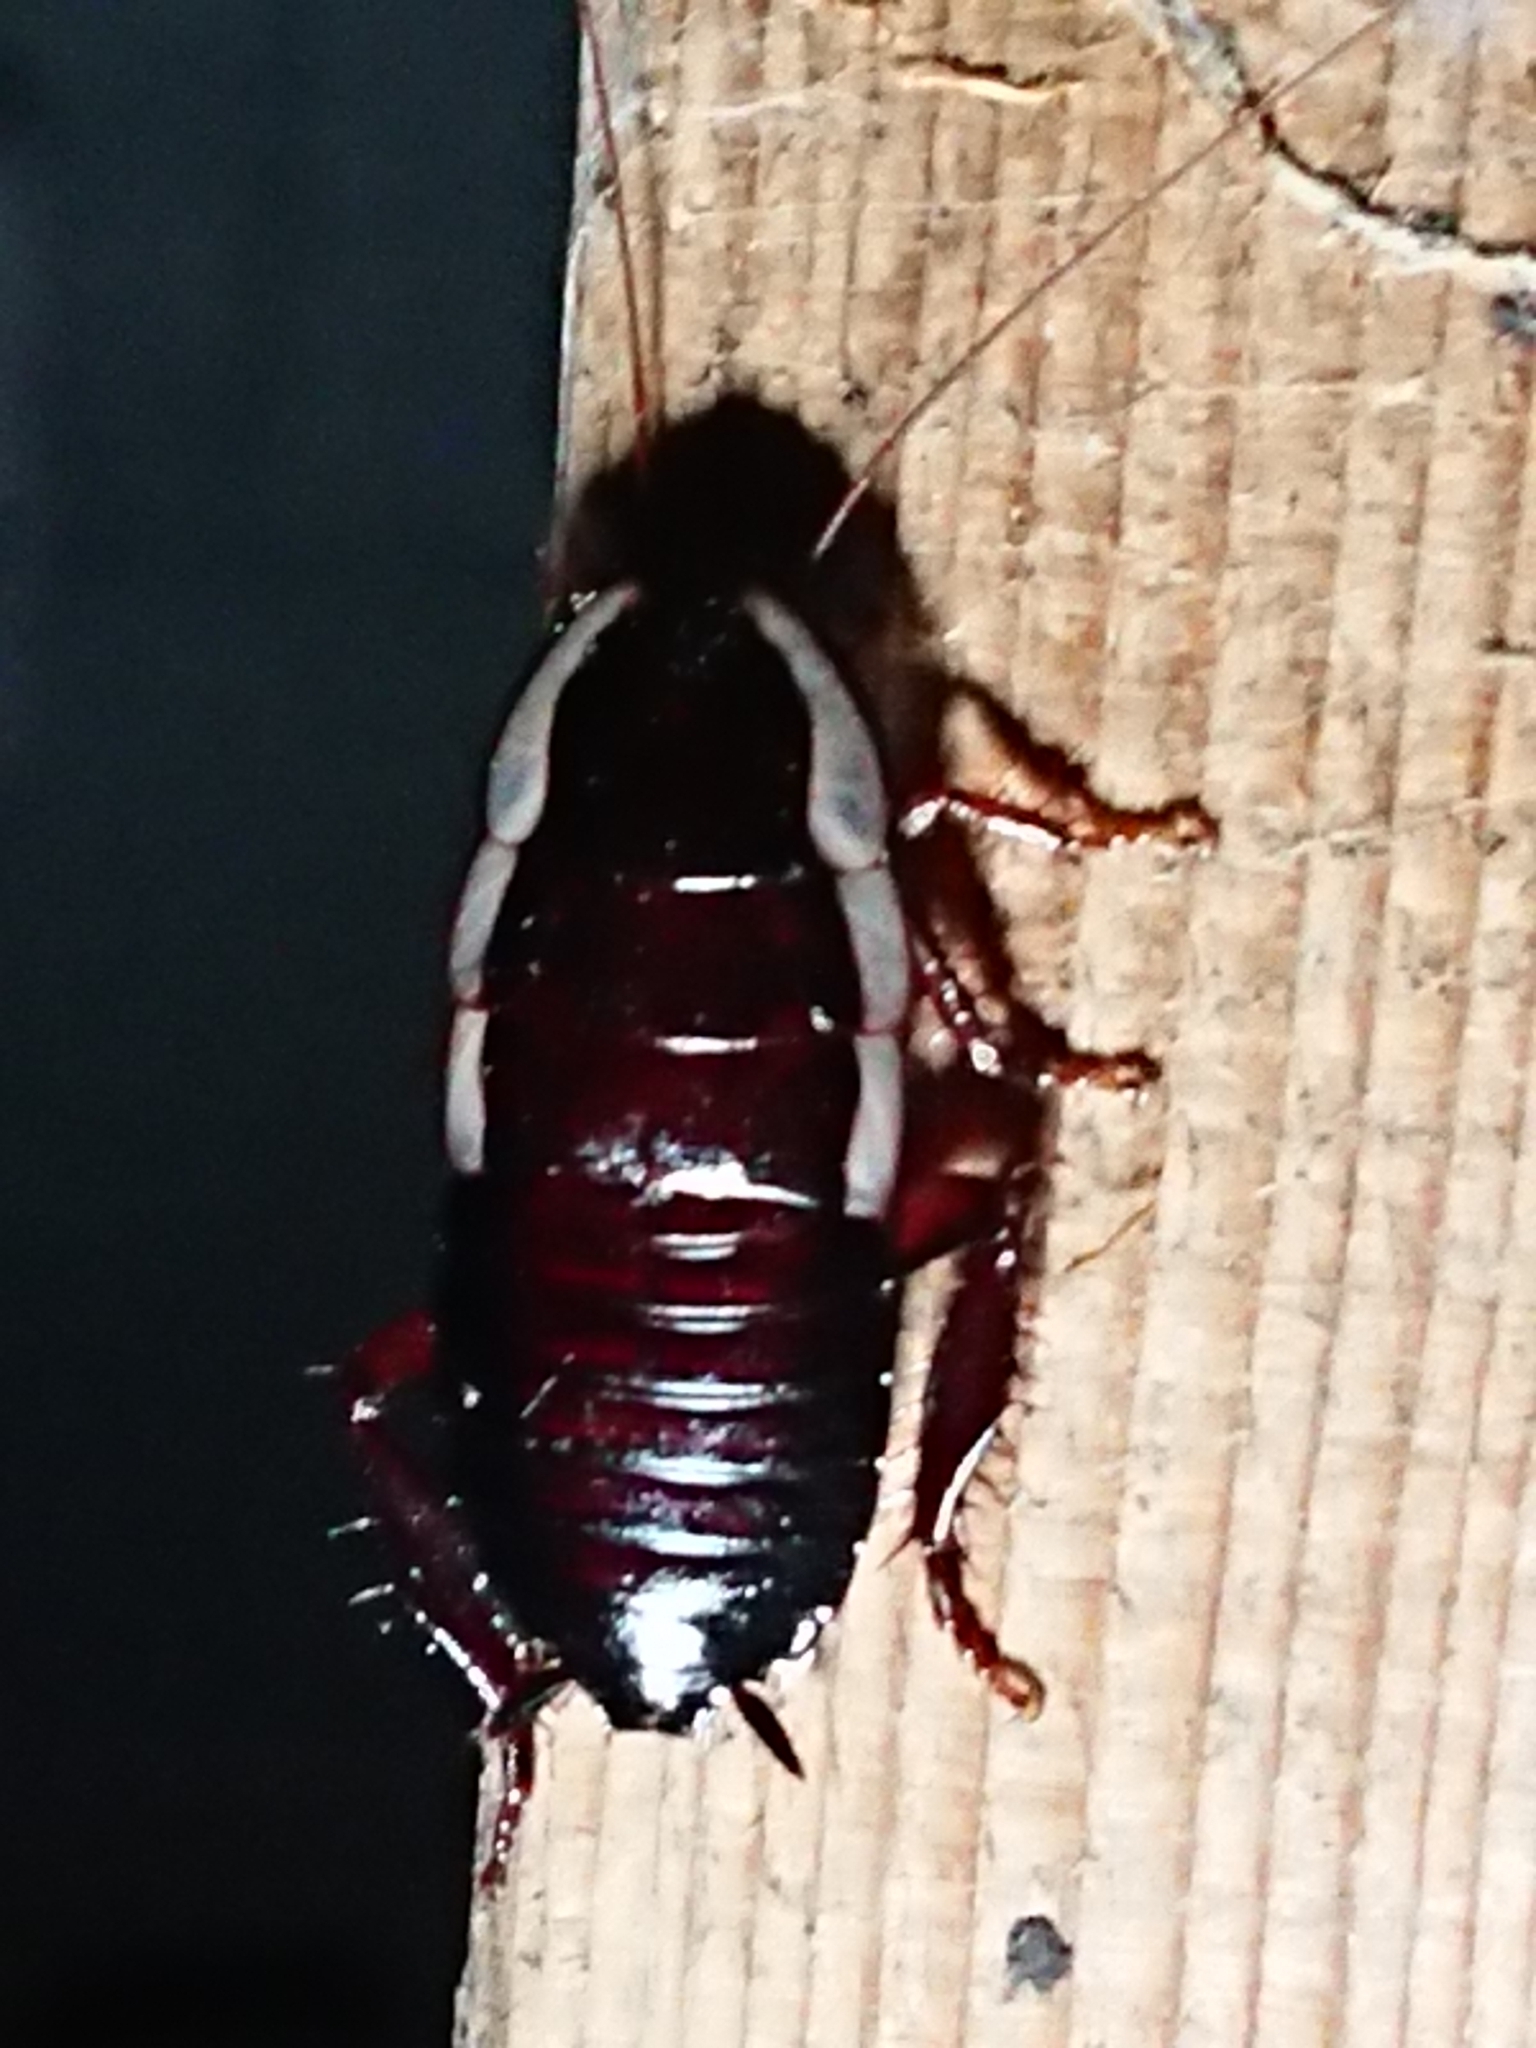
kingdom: Animalia
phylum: Arthropoda
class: Insecta
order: Blattodea
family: Blattidae
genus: Drymaplaneta
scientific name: Drymaplaneta semivitta
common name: Gisborne cockroach
